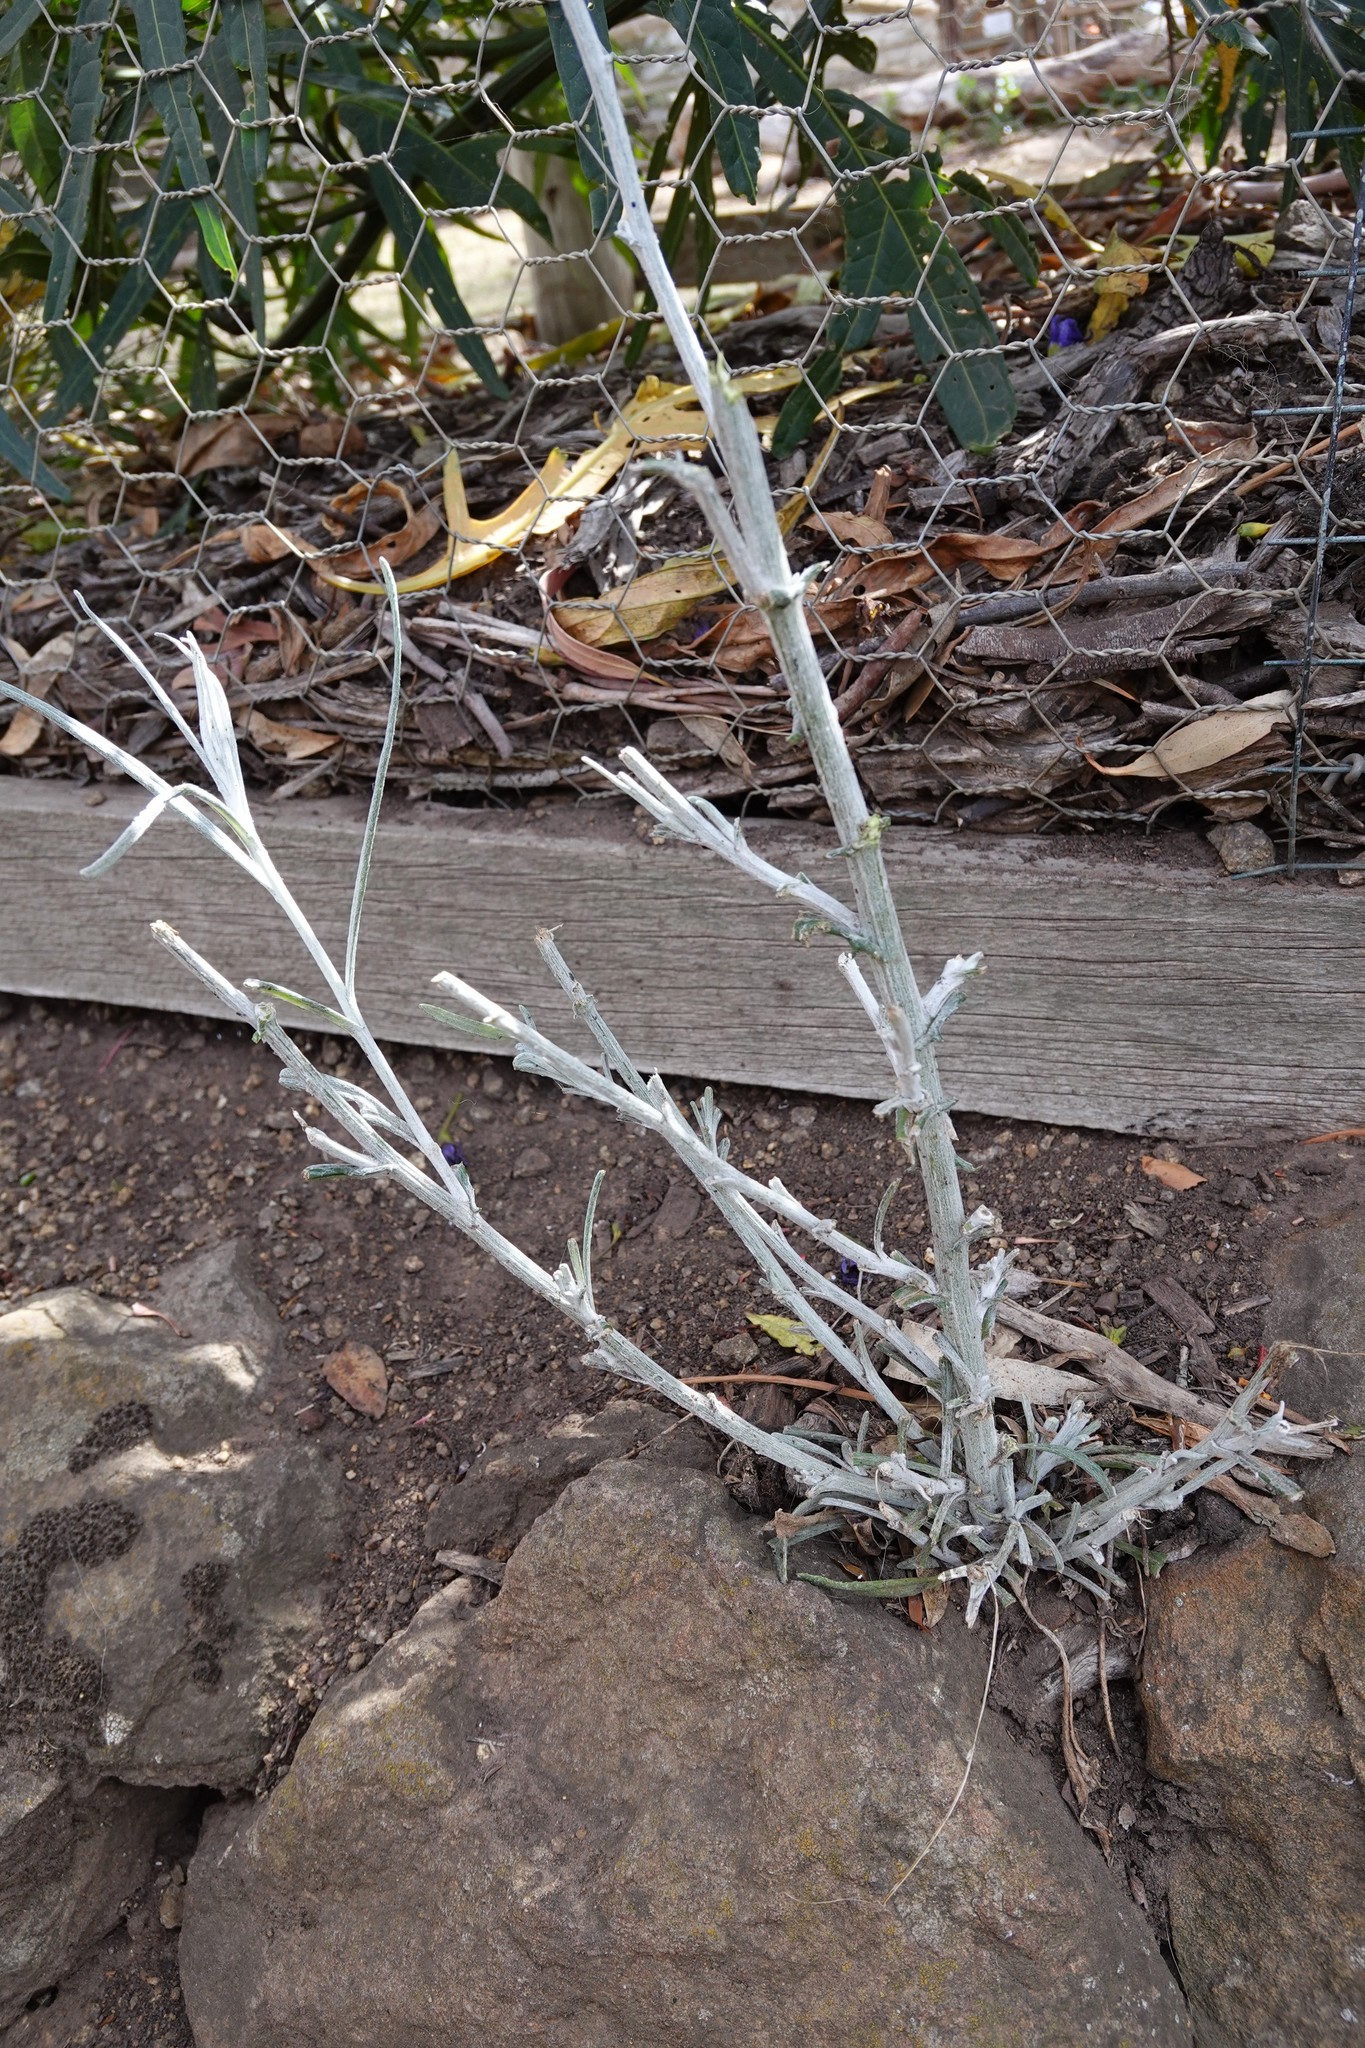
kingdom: Plantae
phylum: Tracheophyta
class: Magnoliopsida
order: Asterales
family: Asteraceae
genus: Senecio
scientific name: Senecio quadridentatus
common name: Cotton fireweed
